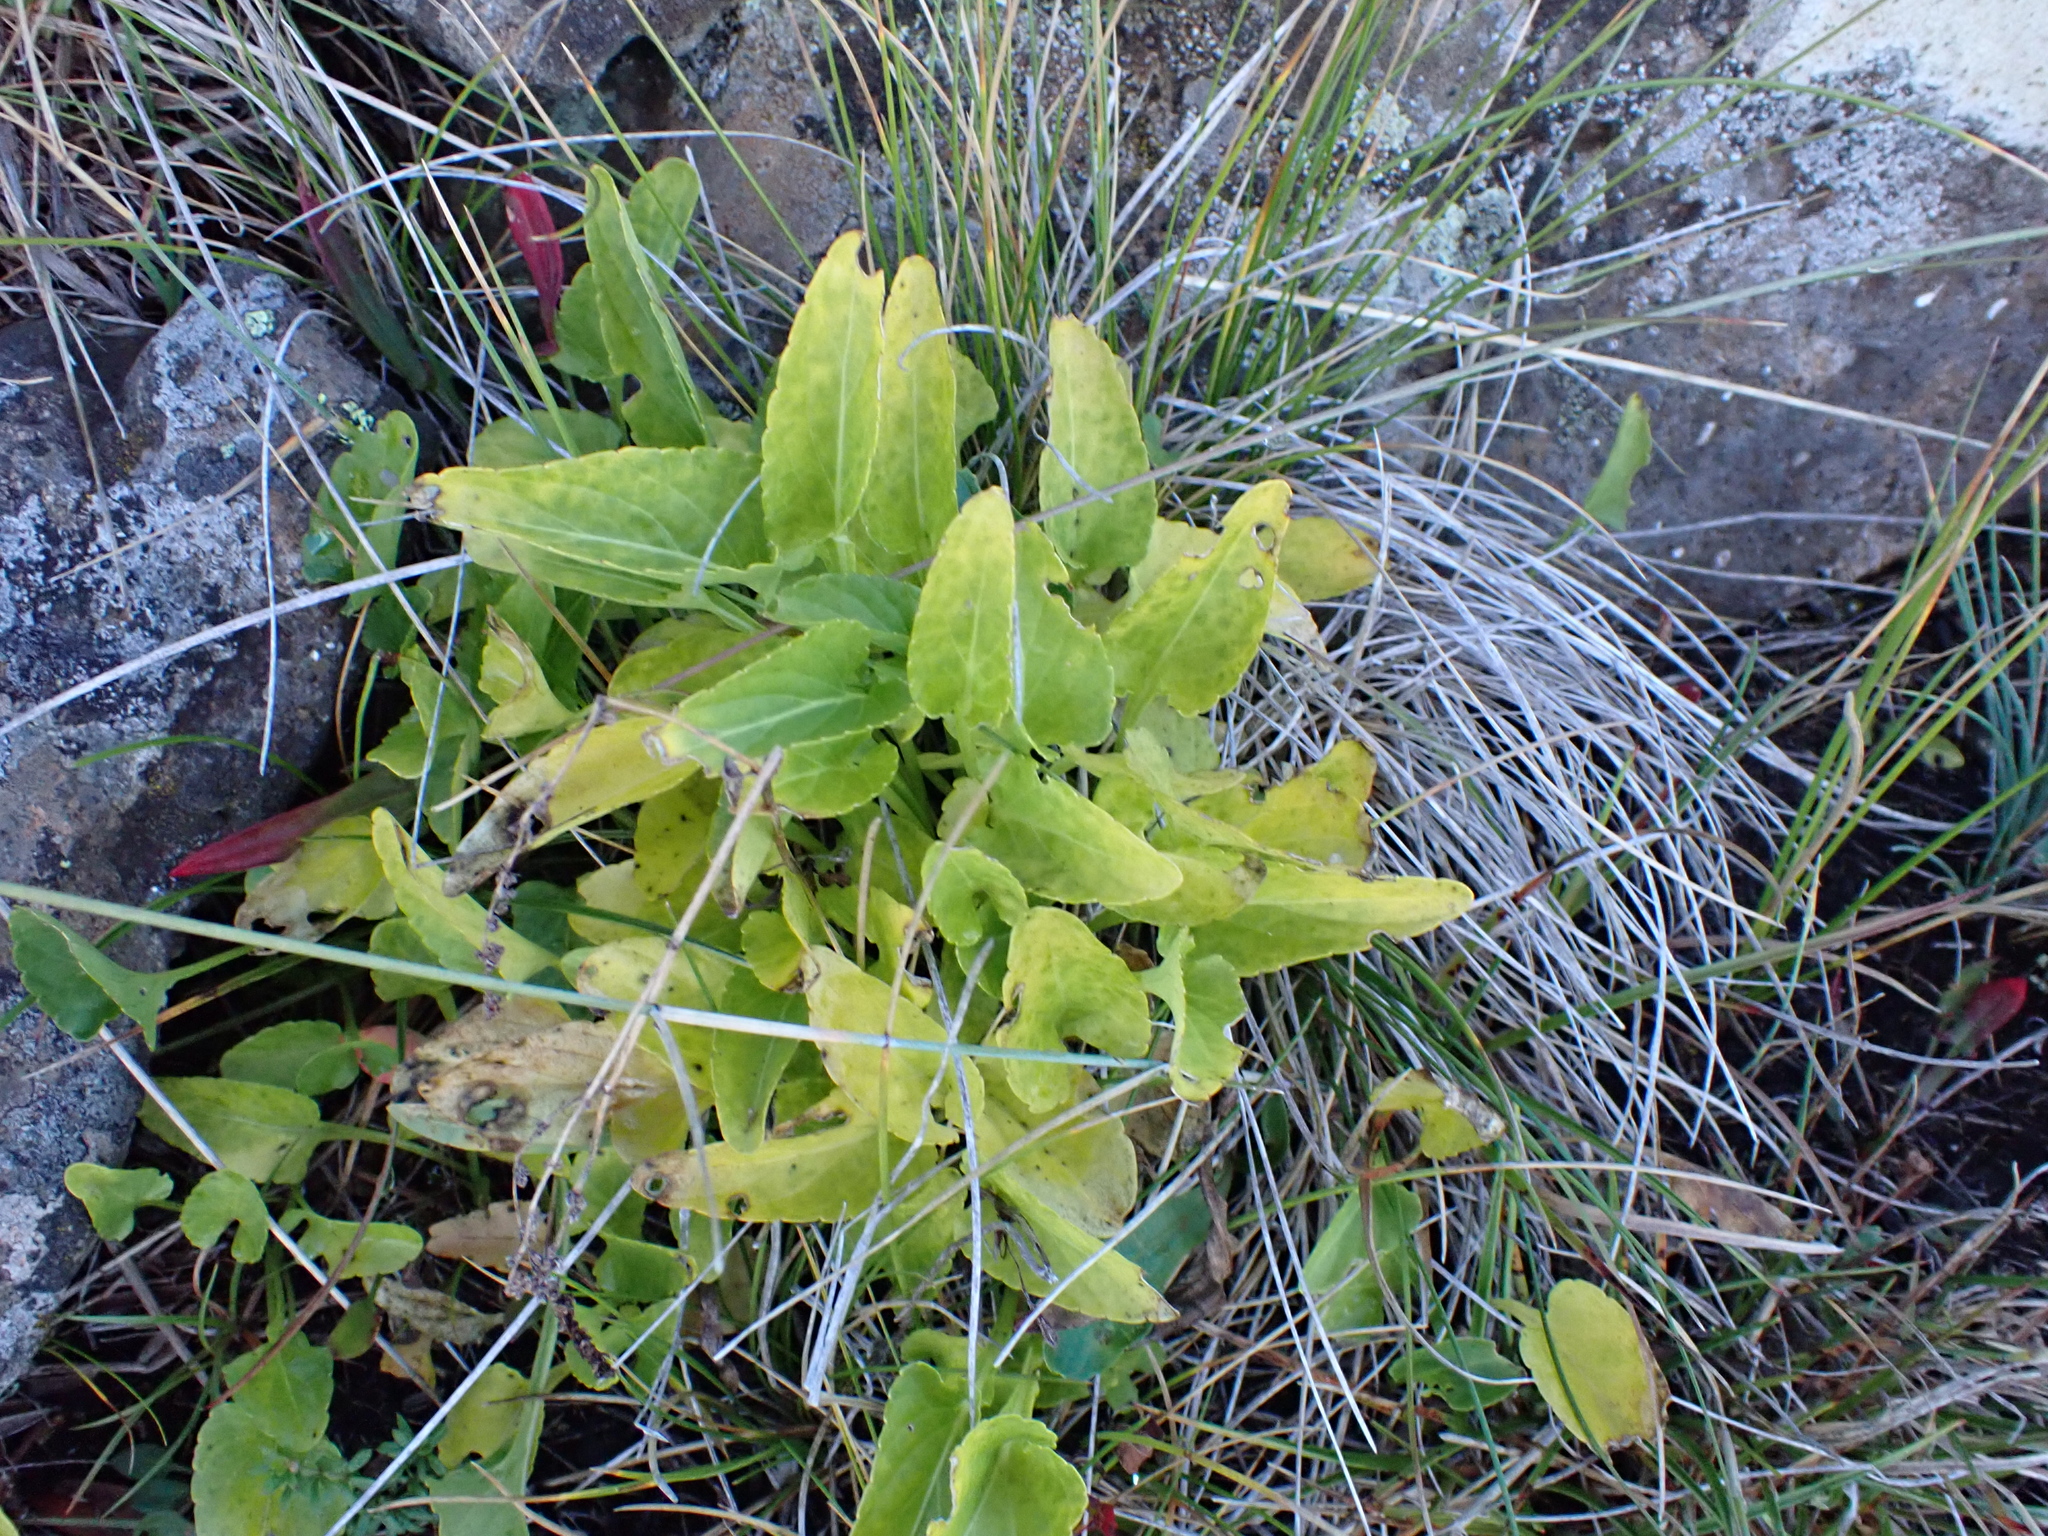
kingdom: Plantae
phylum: Tracheophyta
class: Magnoliopsida
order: Malpighiales
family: Violaceae
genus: Viola
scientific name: Viola betonicifolia
